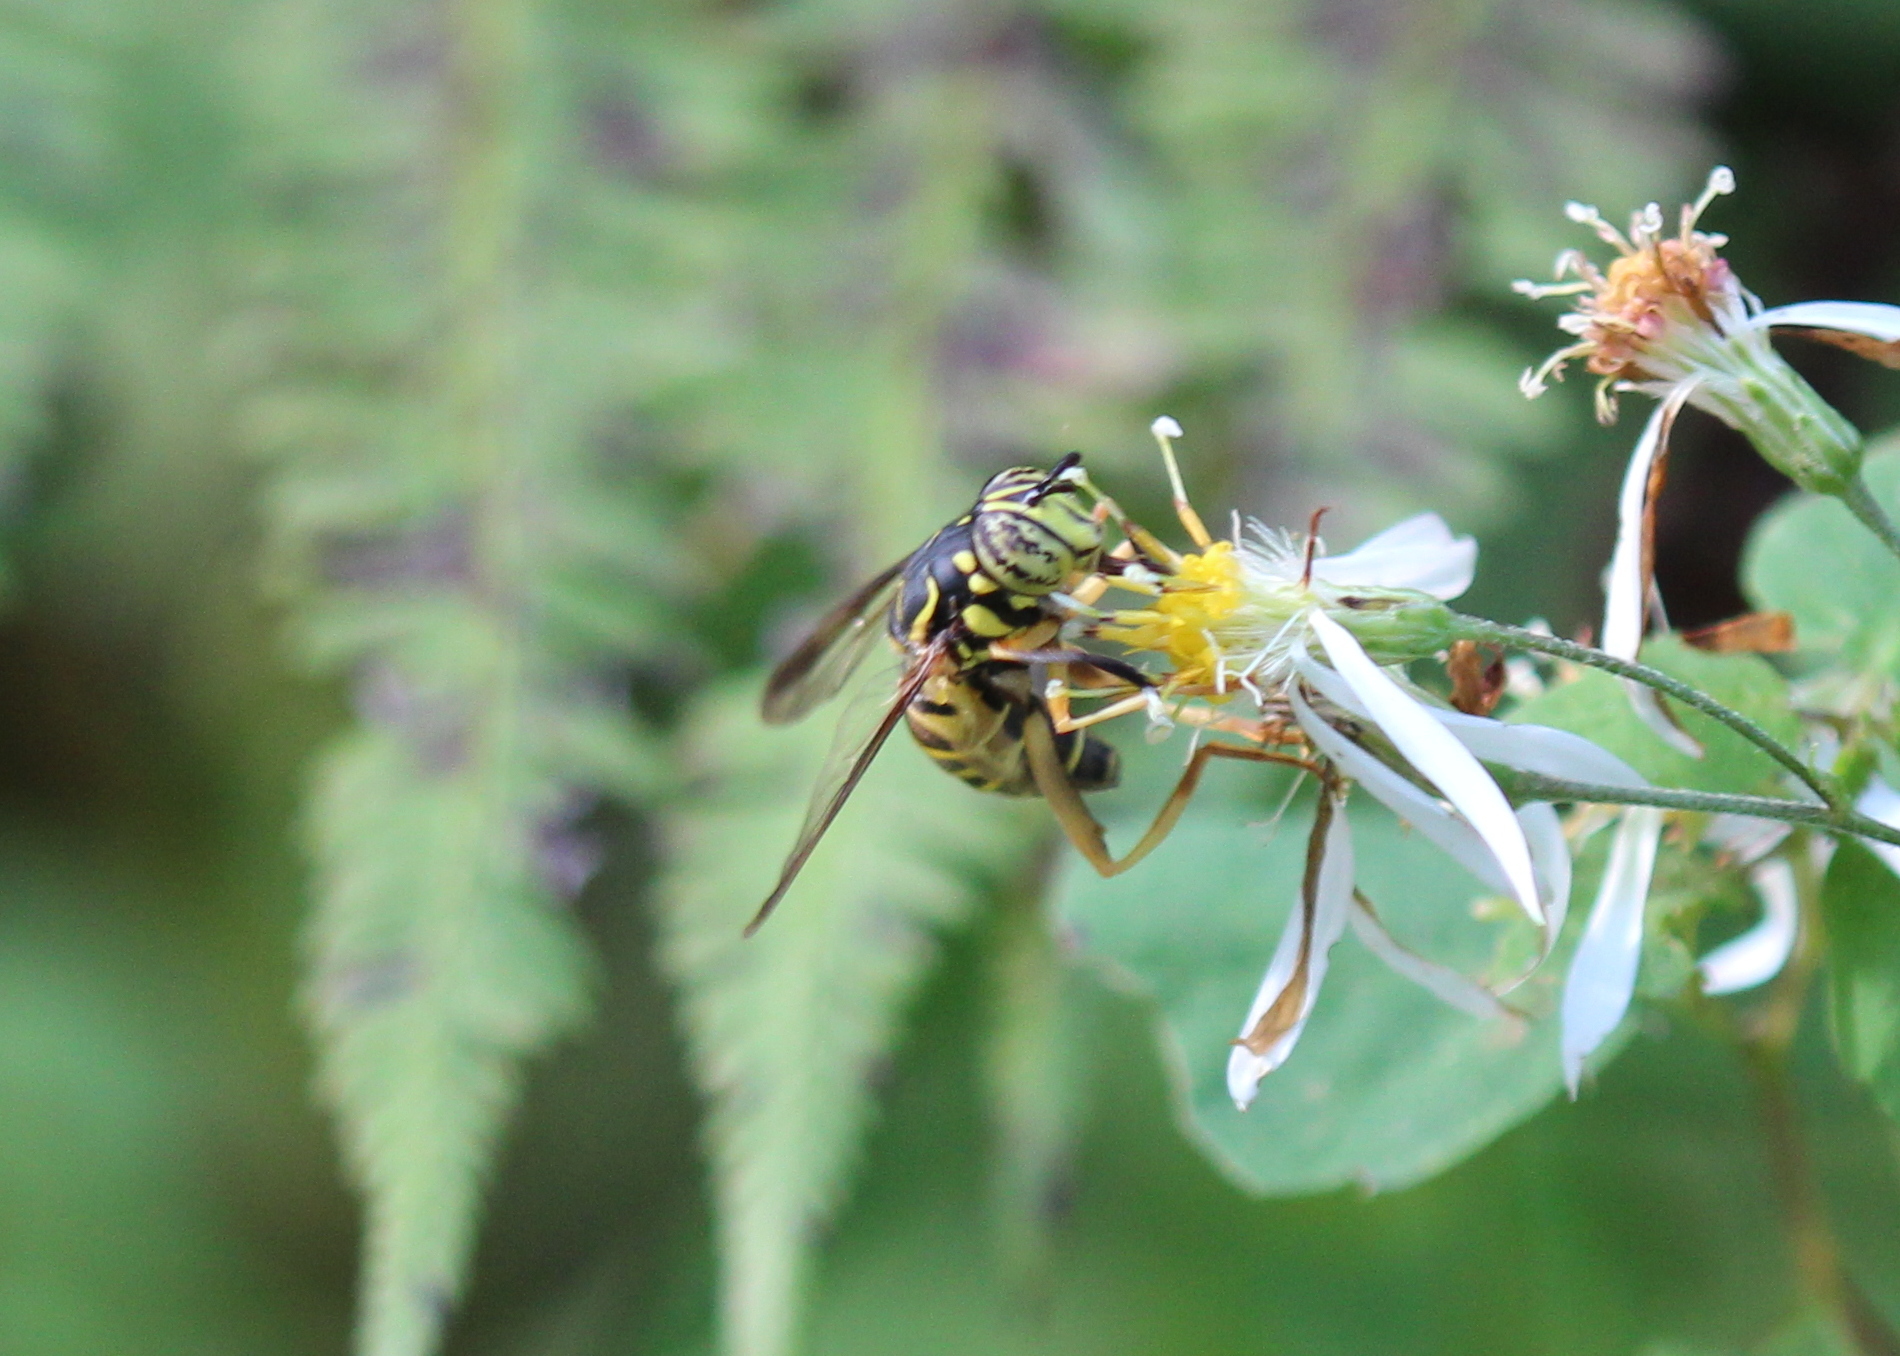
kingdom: Animalia
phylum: Arthropoda
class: Insecta
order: Diptera
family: Syrphidae
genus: Spilomyia
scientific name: Spilomyia longicornis
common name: Eastern hornet fly
